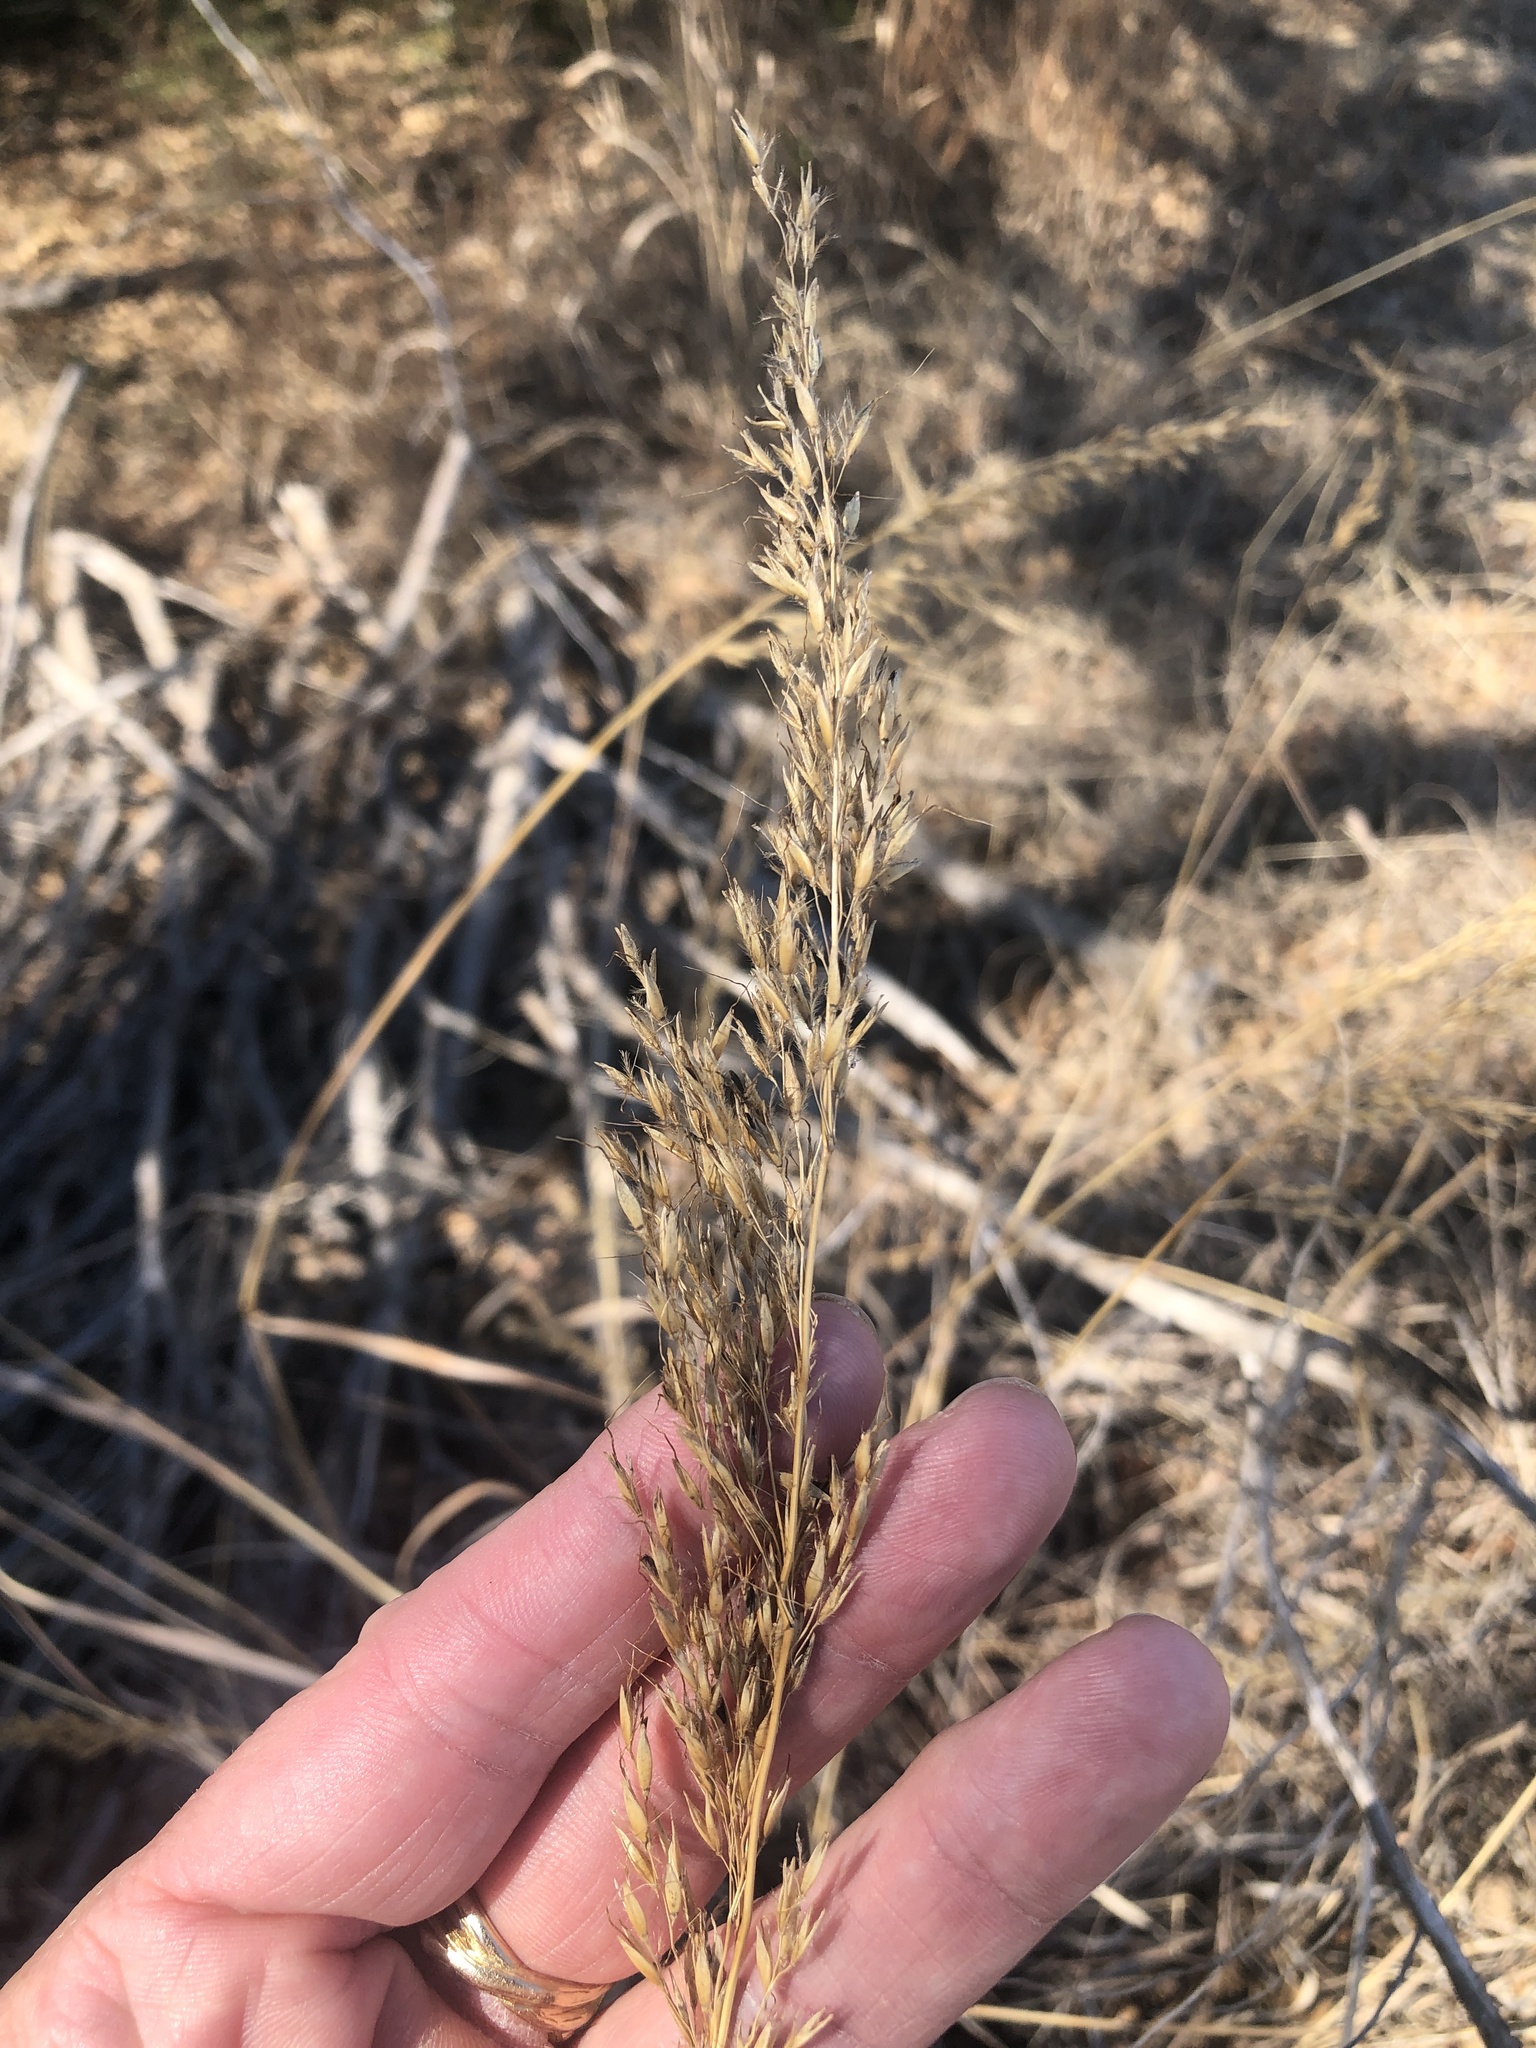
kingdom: Plantae
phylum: Tracheophyta
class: Liliopsida
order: Poales
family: Poaceae
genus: Sorghastrum
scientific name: Sorghastrum nutans
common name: Indian grass
